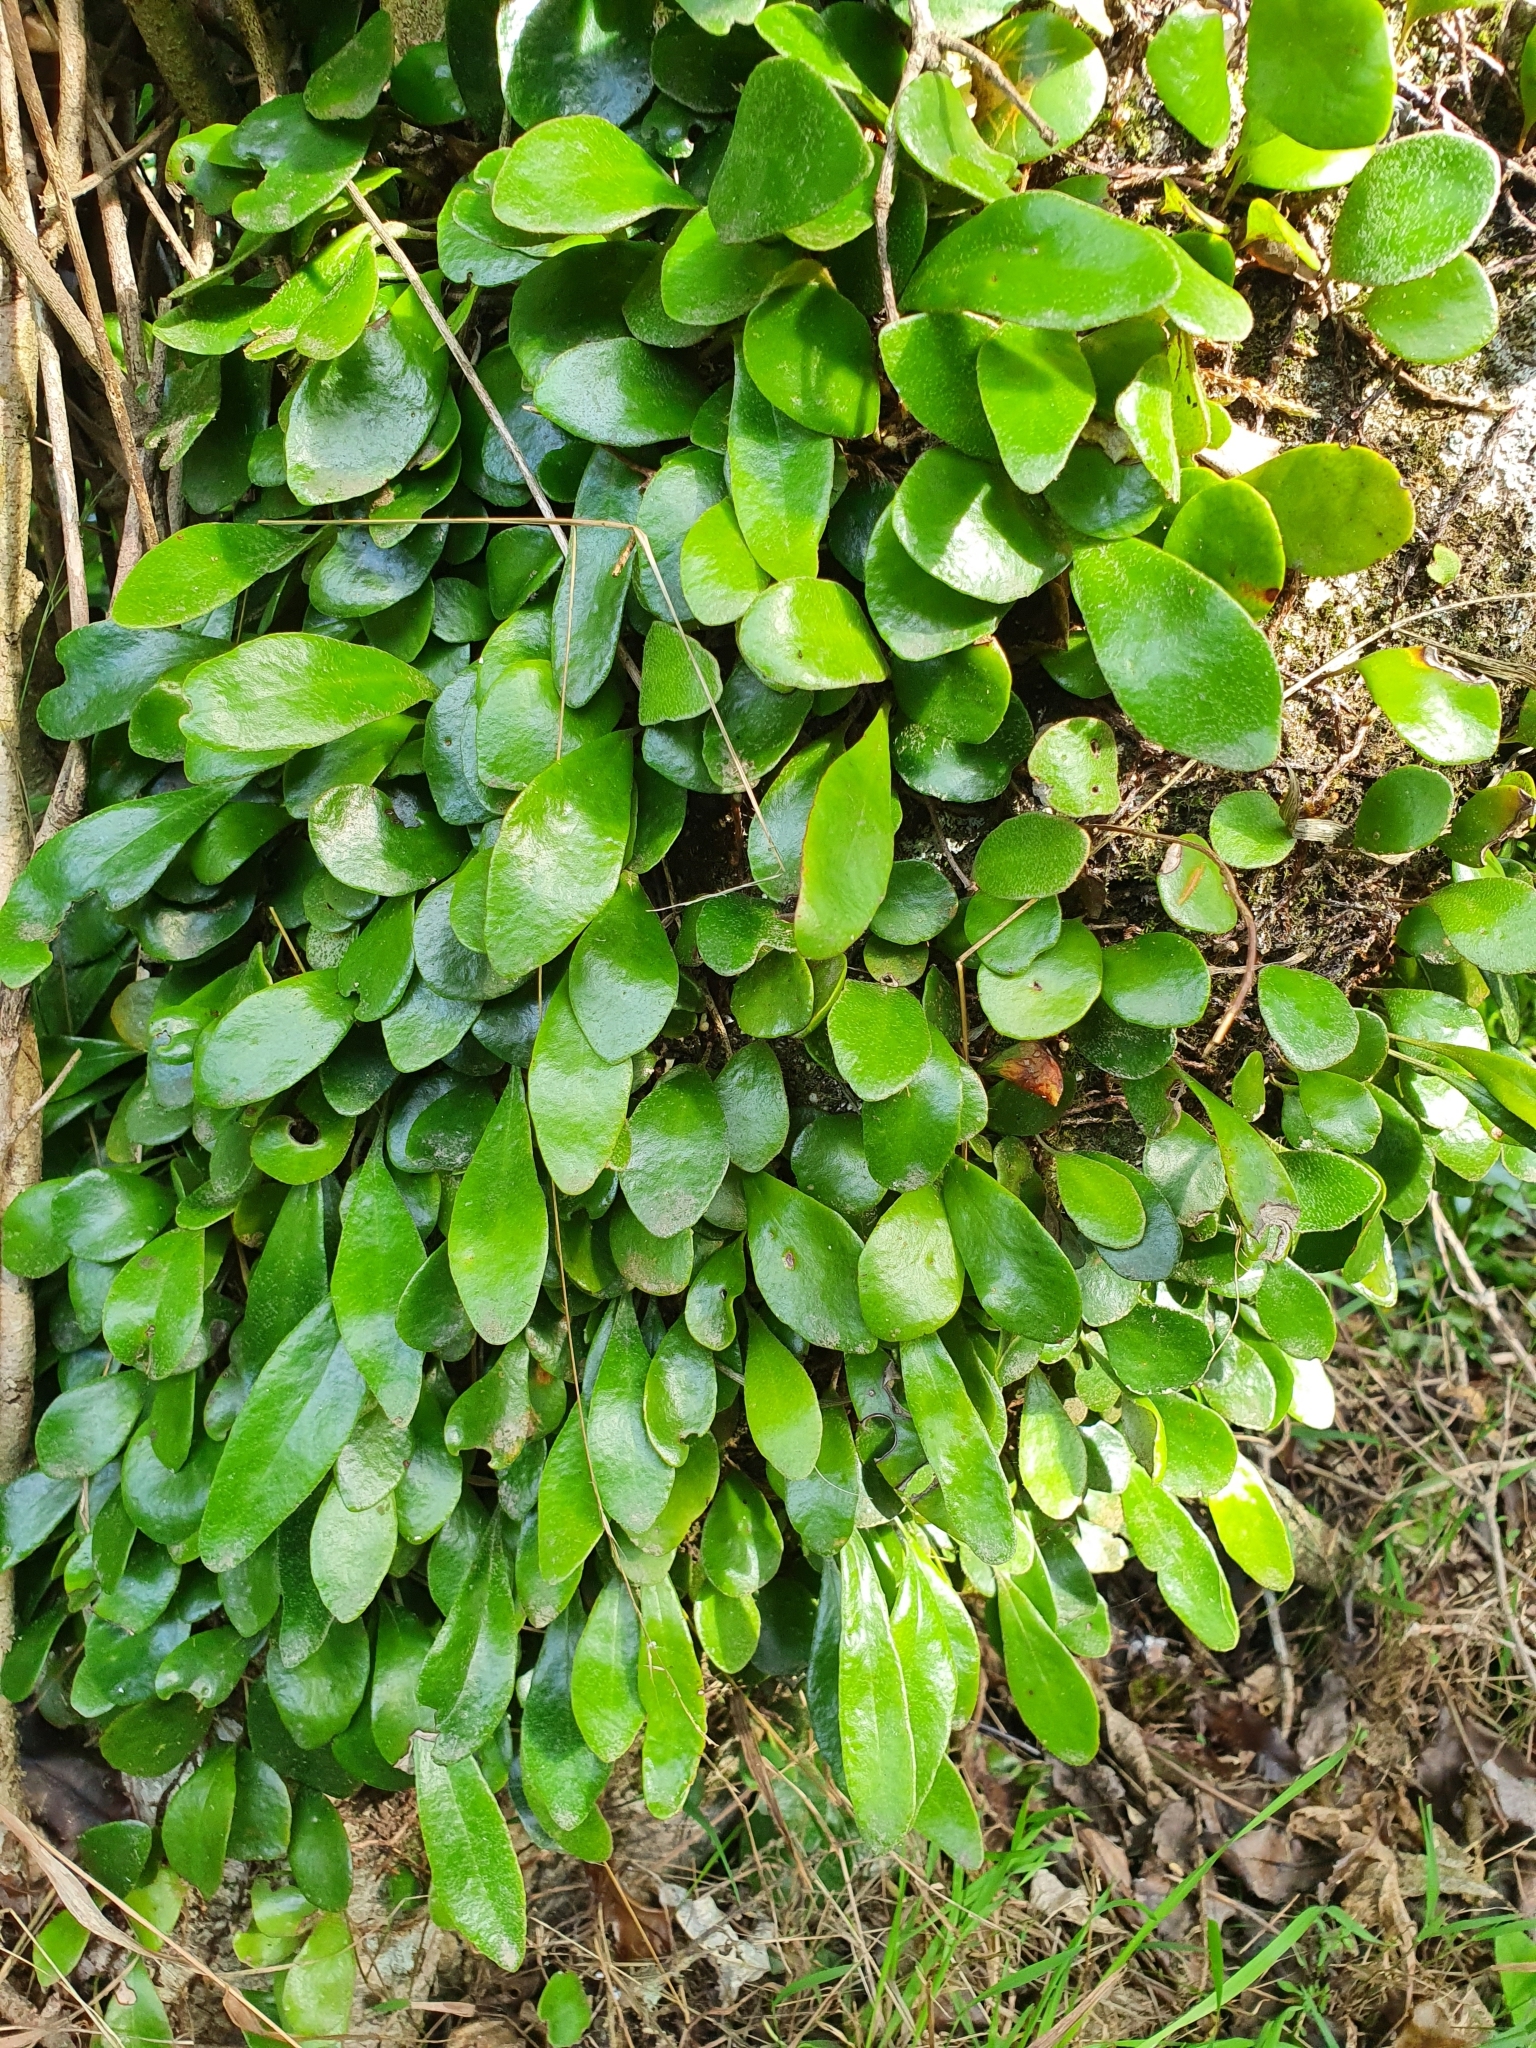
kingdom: Plantae
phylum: Tracheophyta
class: Polypodiopsida
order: Polypodiales
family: Polypodiaceae
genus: Pyrrosia
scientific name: Pyrrosia eleagnifolia
